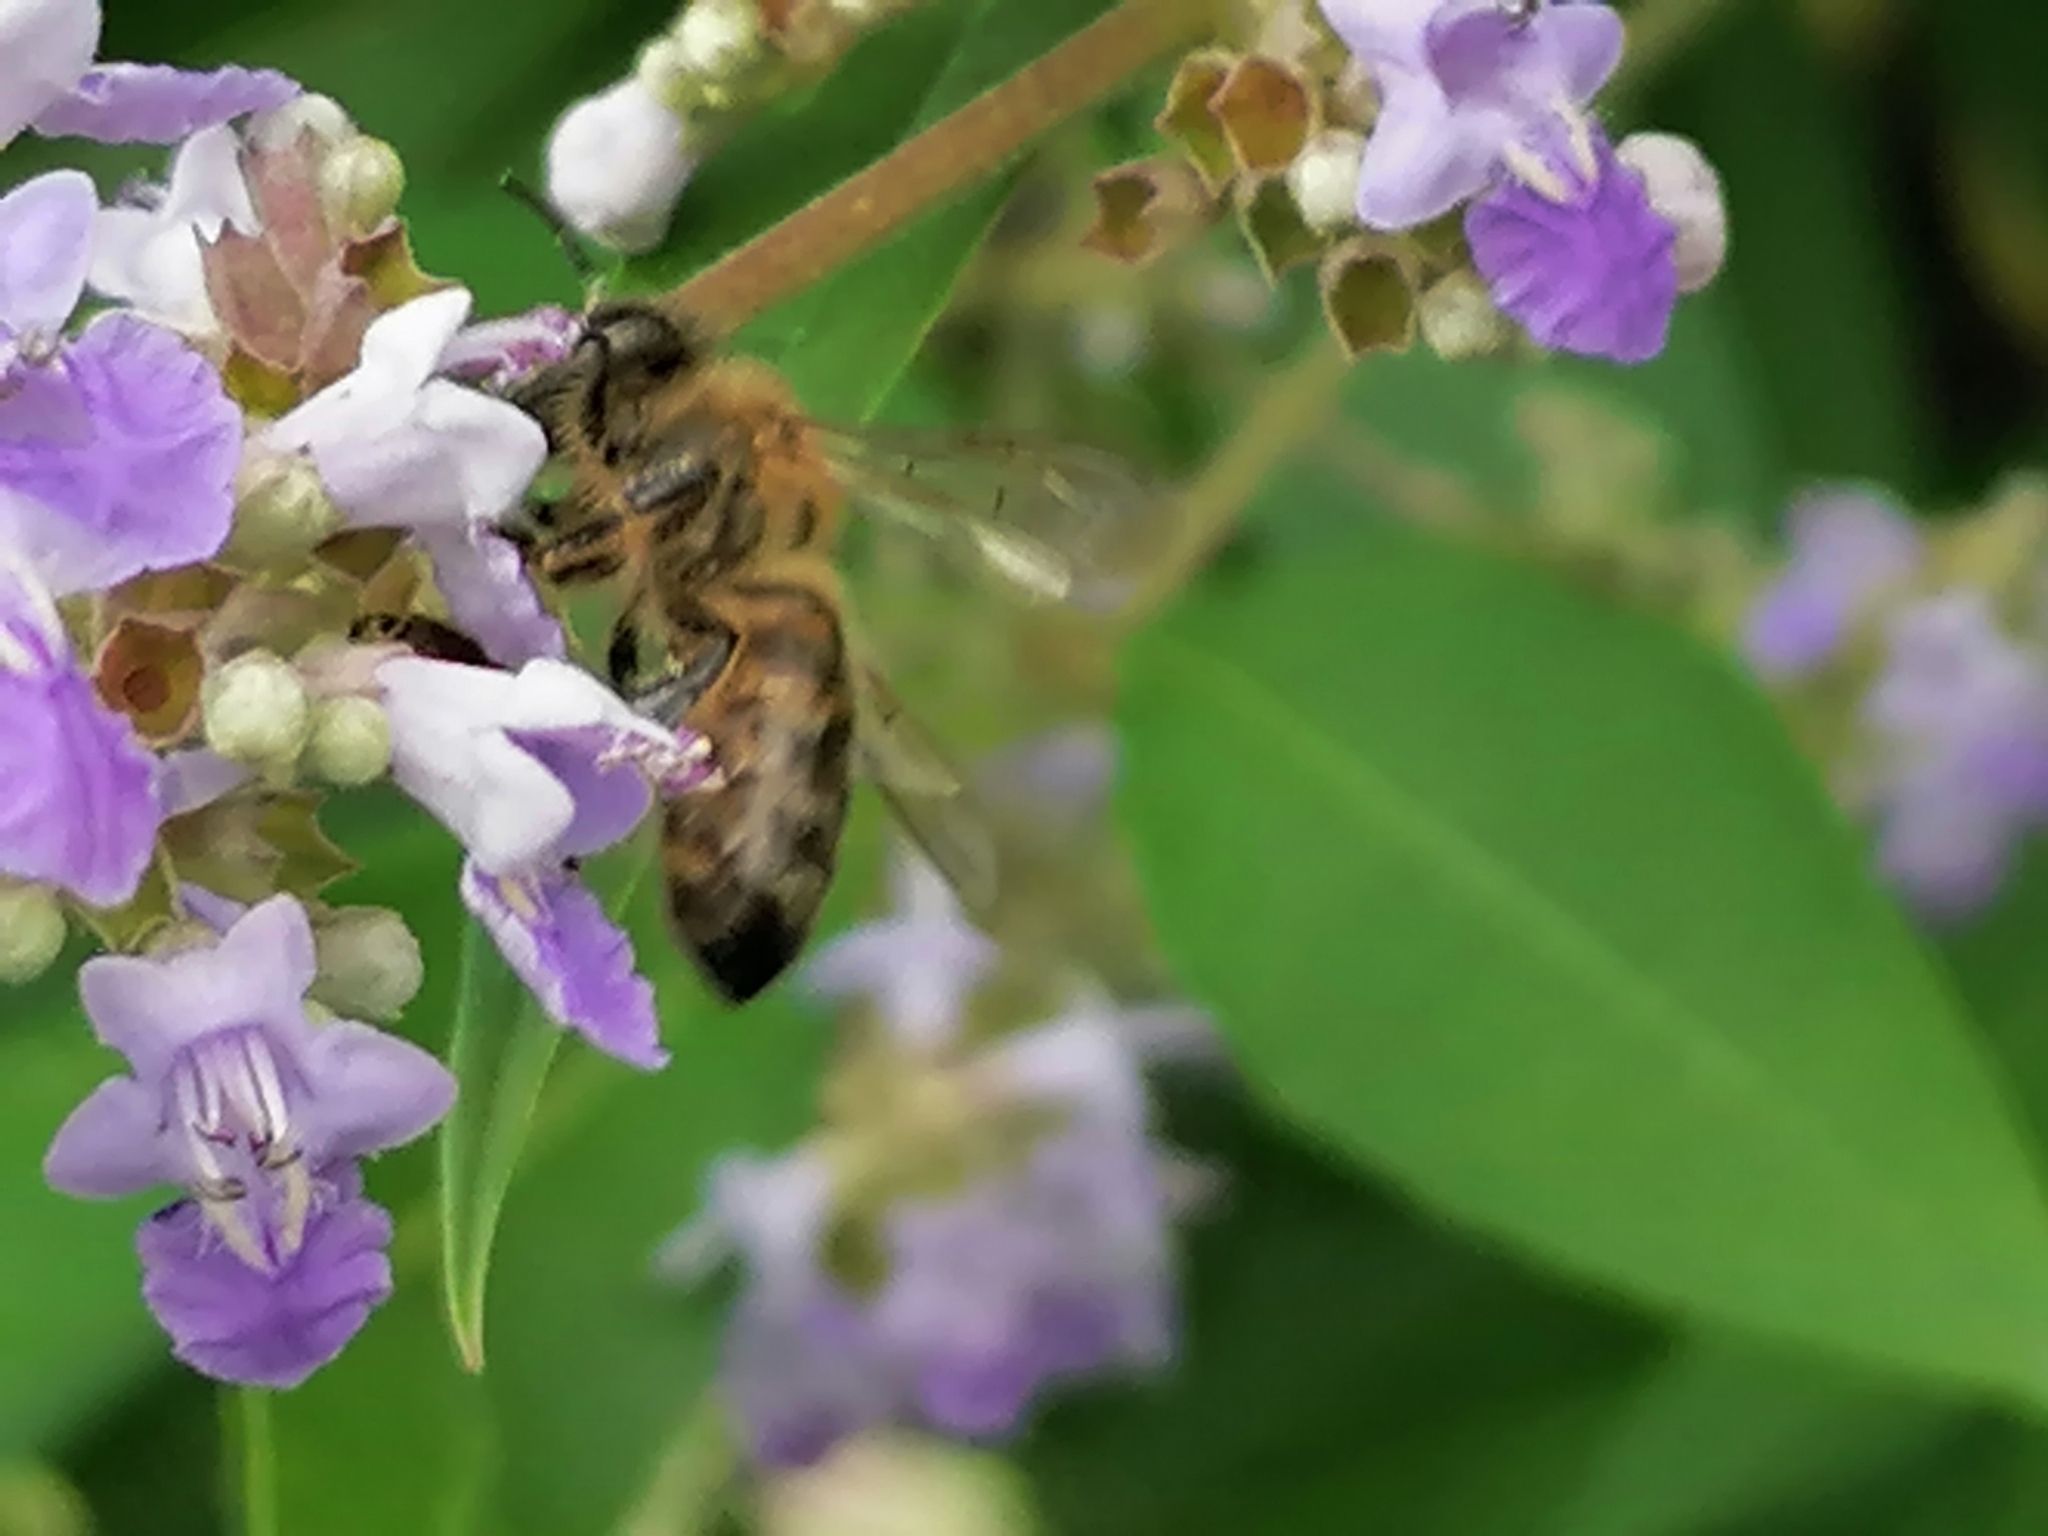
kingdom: Animalia
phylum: Arthropoda
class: Insecta
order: Hymenoptera
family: Apidae
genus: Apis
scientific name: Apis mellifera
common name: Honey bee
